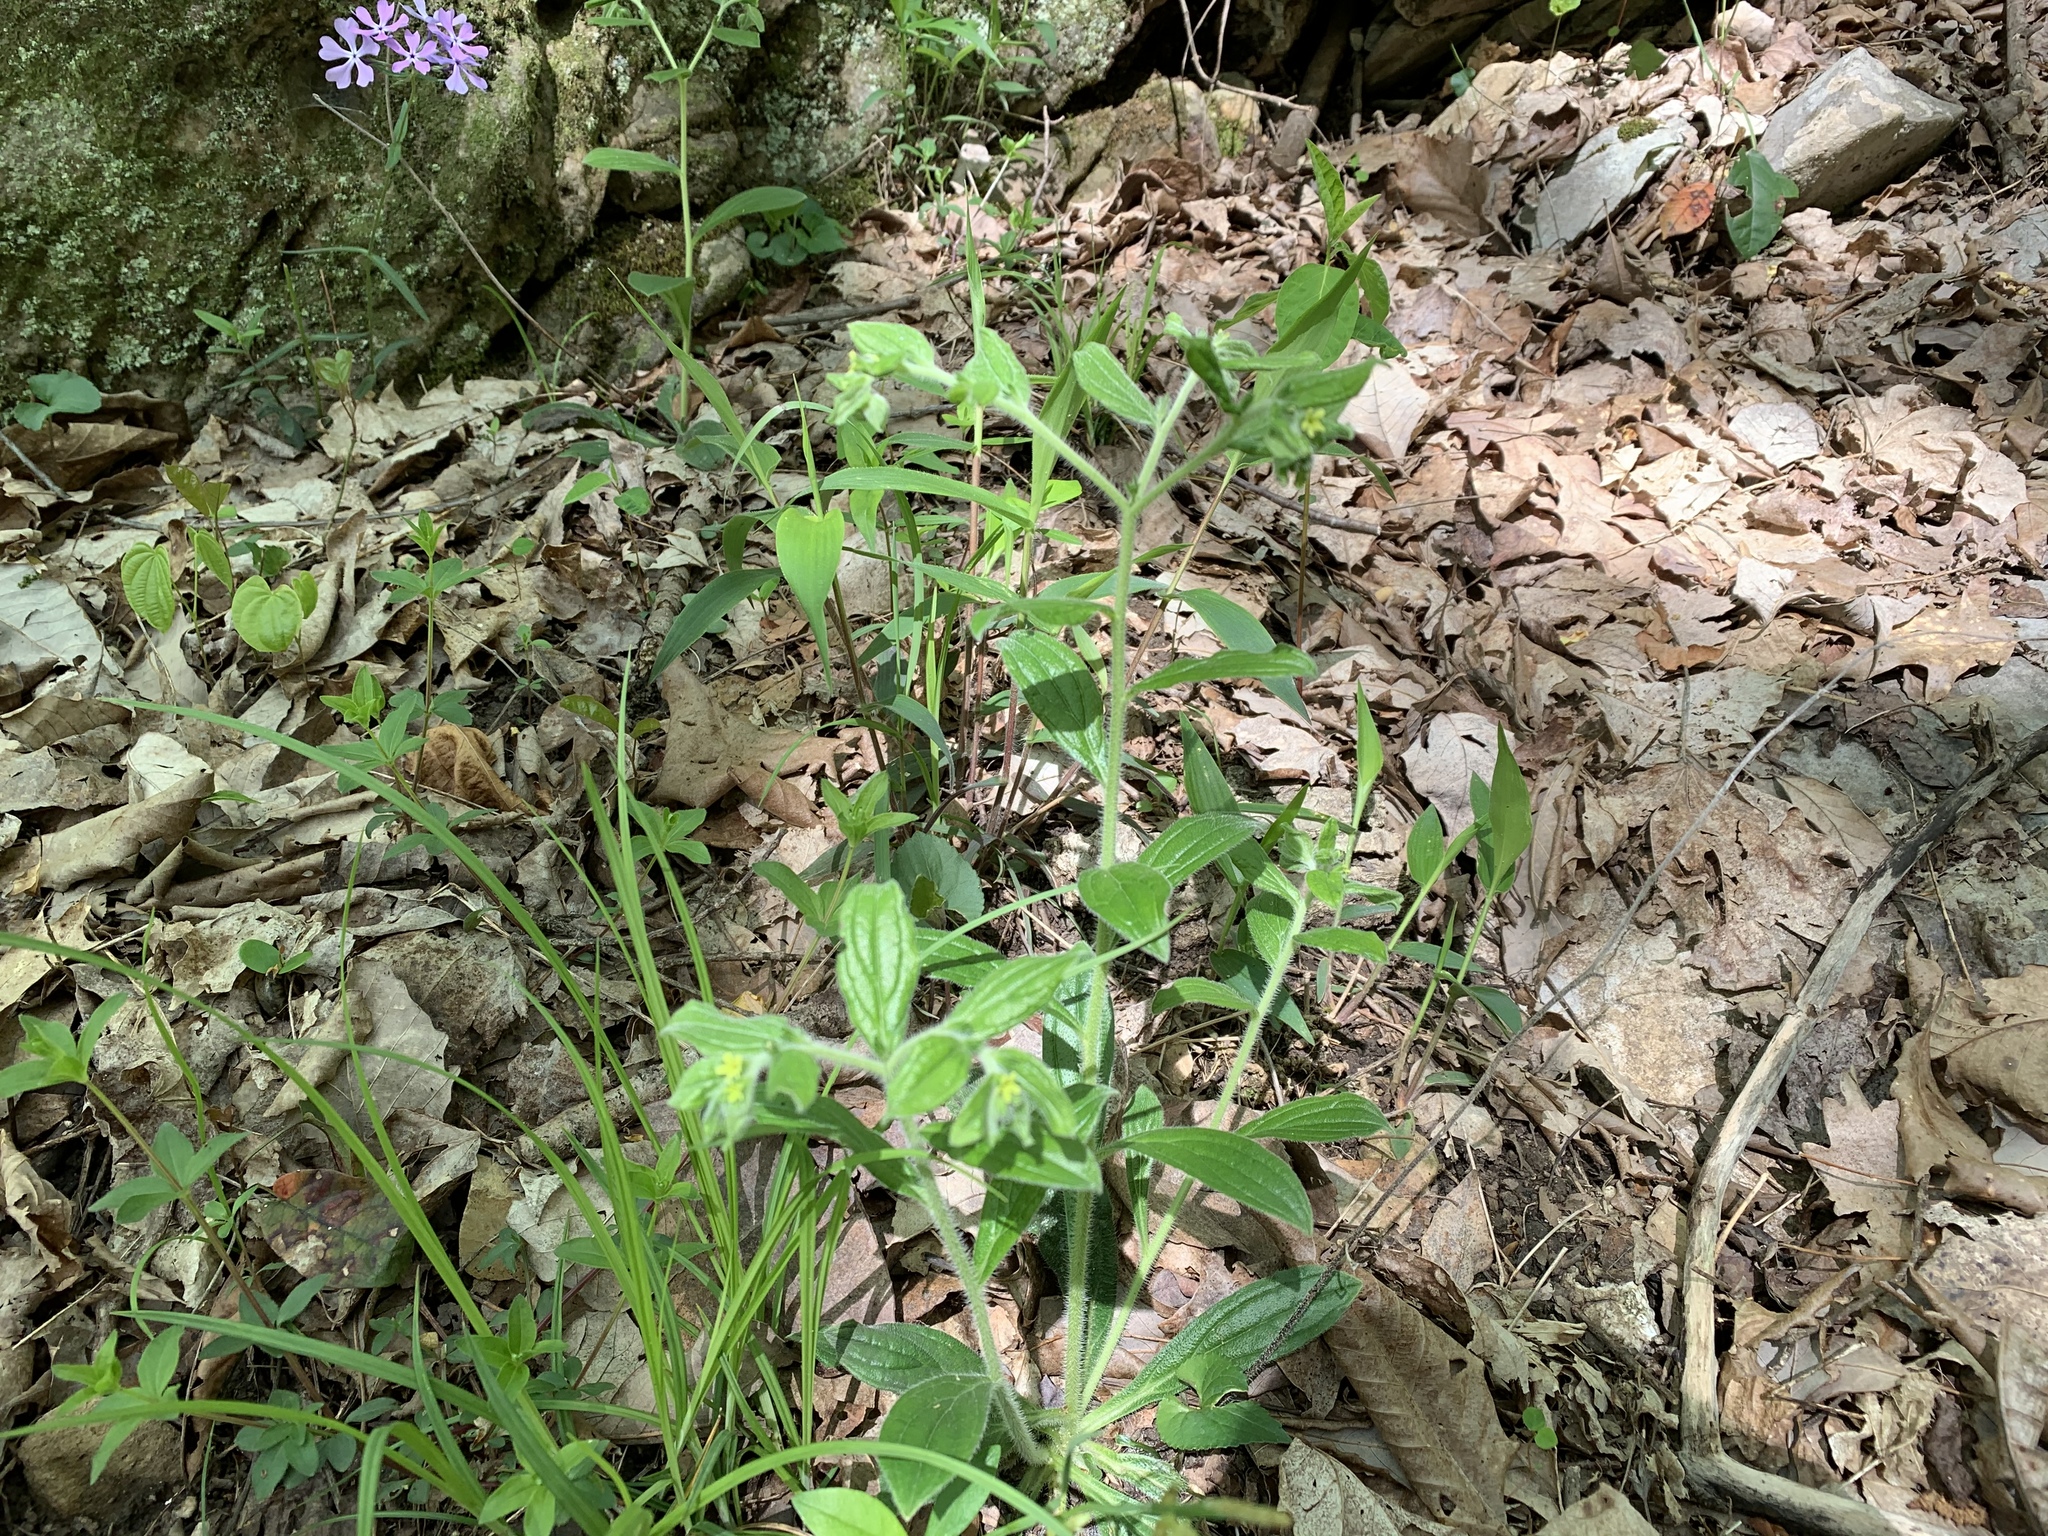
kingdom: Plantae
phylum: Tracheophyta
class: Magnoliopsida
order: Boraginales
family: Boraginaceae
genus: Lithospermum
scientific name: Lithospermum tuberosum
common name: Southern stoneseed
